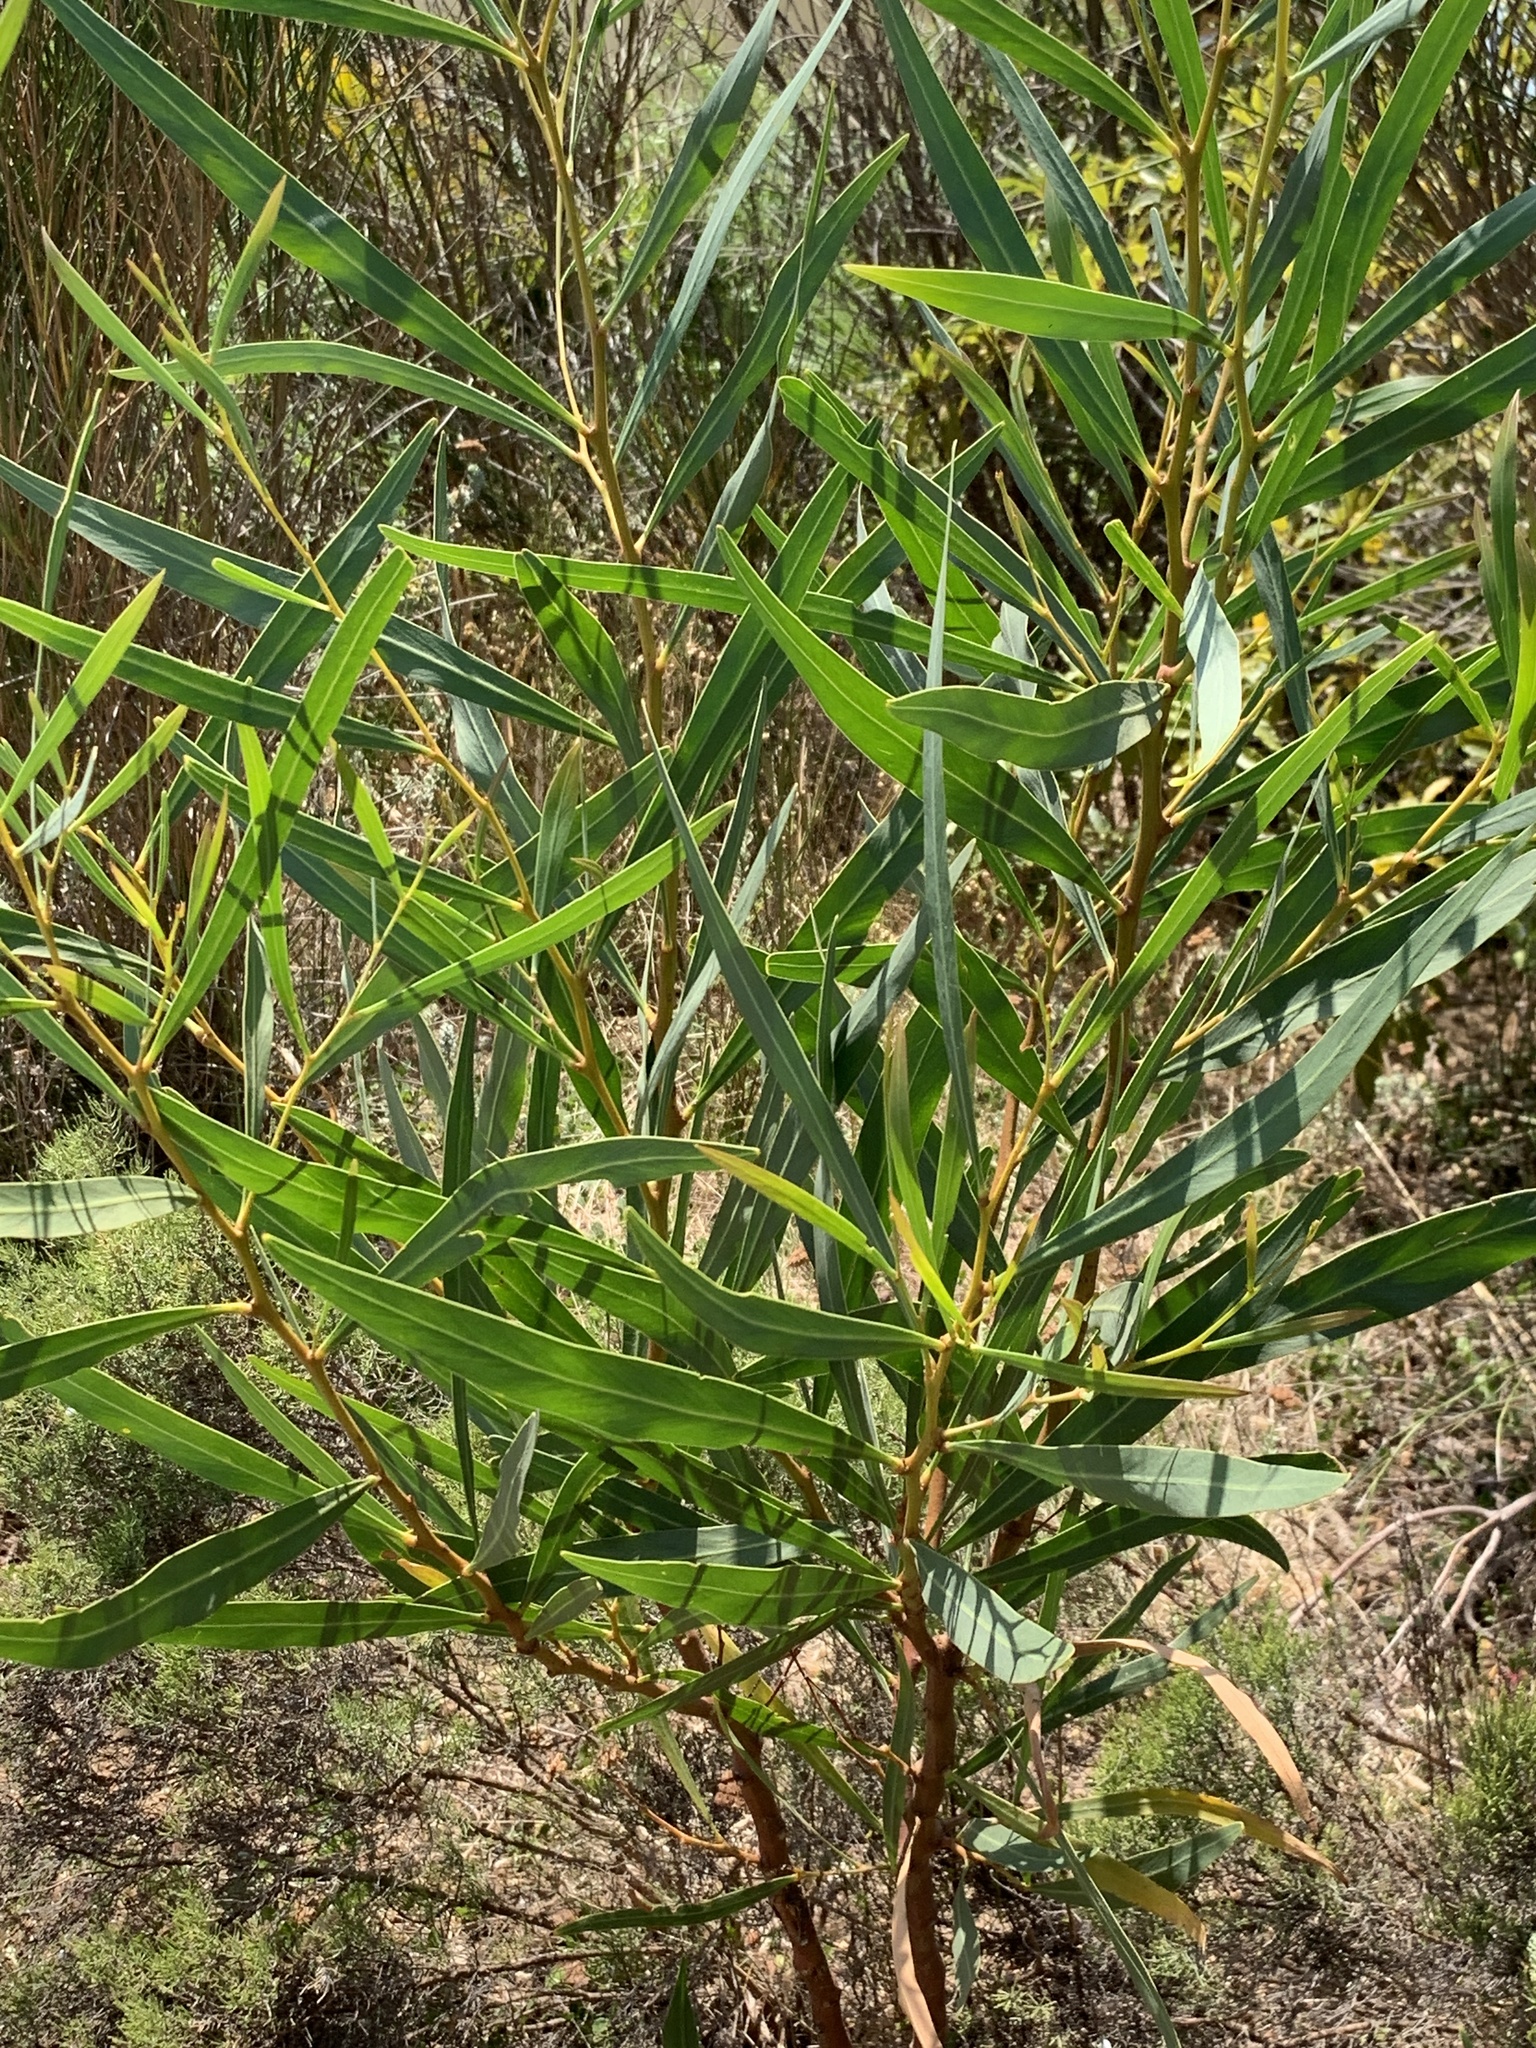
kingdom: Plantae
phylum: Tracheophyta
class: Magnoliopsida
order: Fabales
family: Fabaceae
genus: Acacia
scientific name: Acacia saligna
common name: Orange wattle
